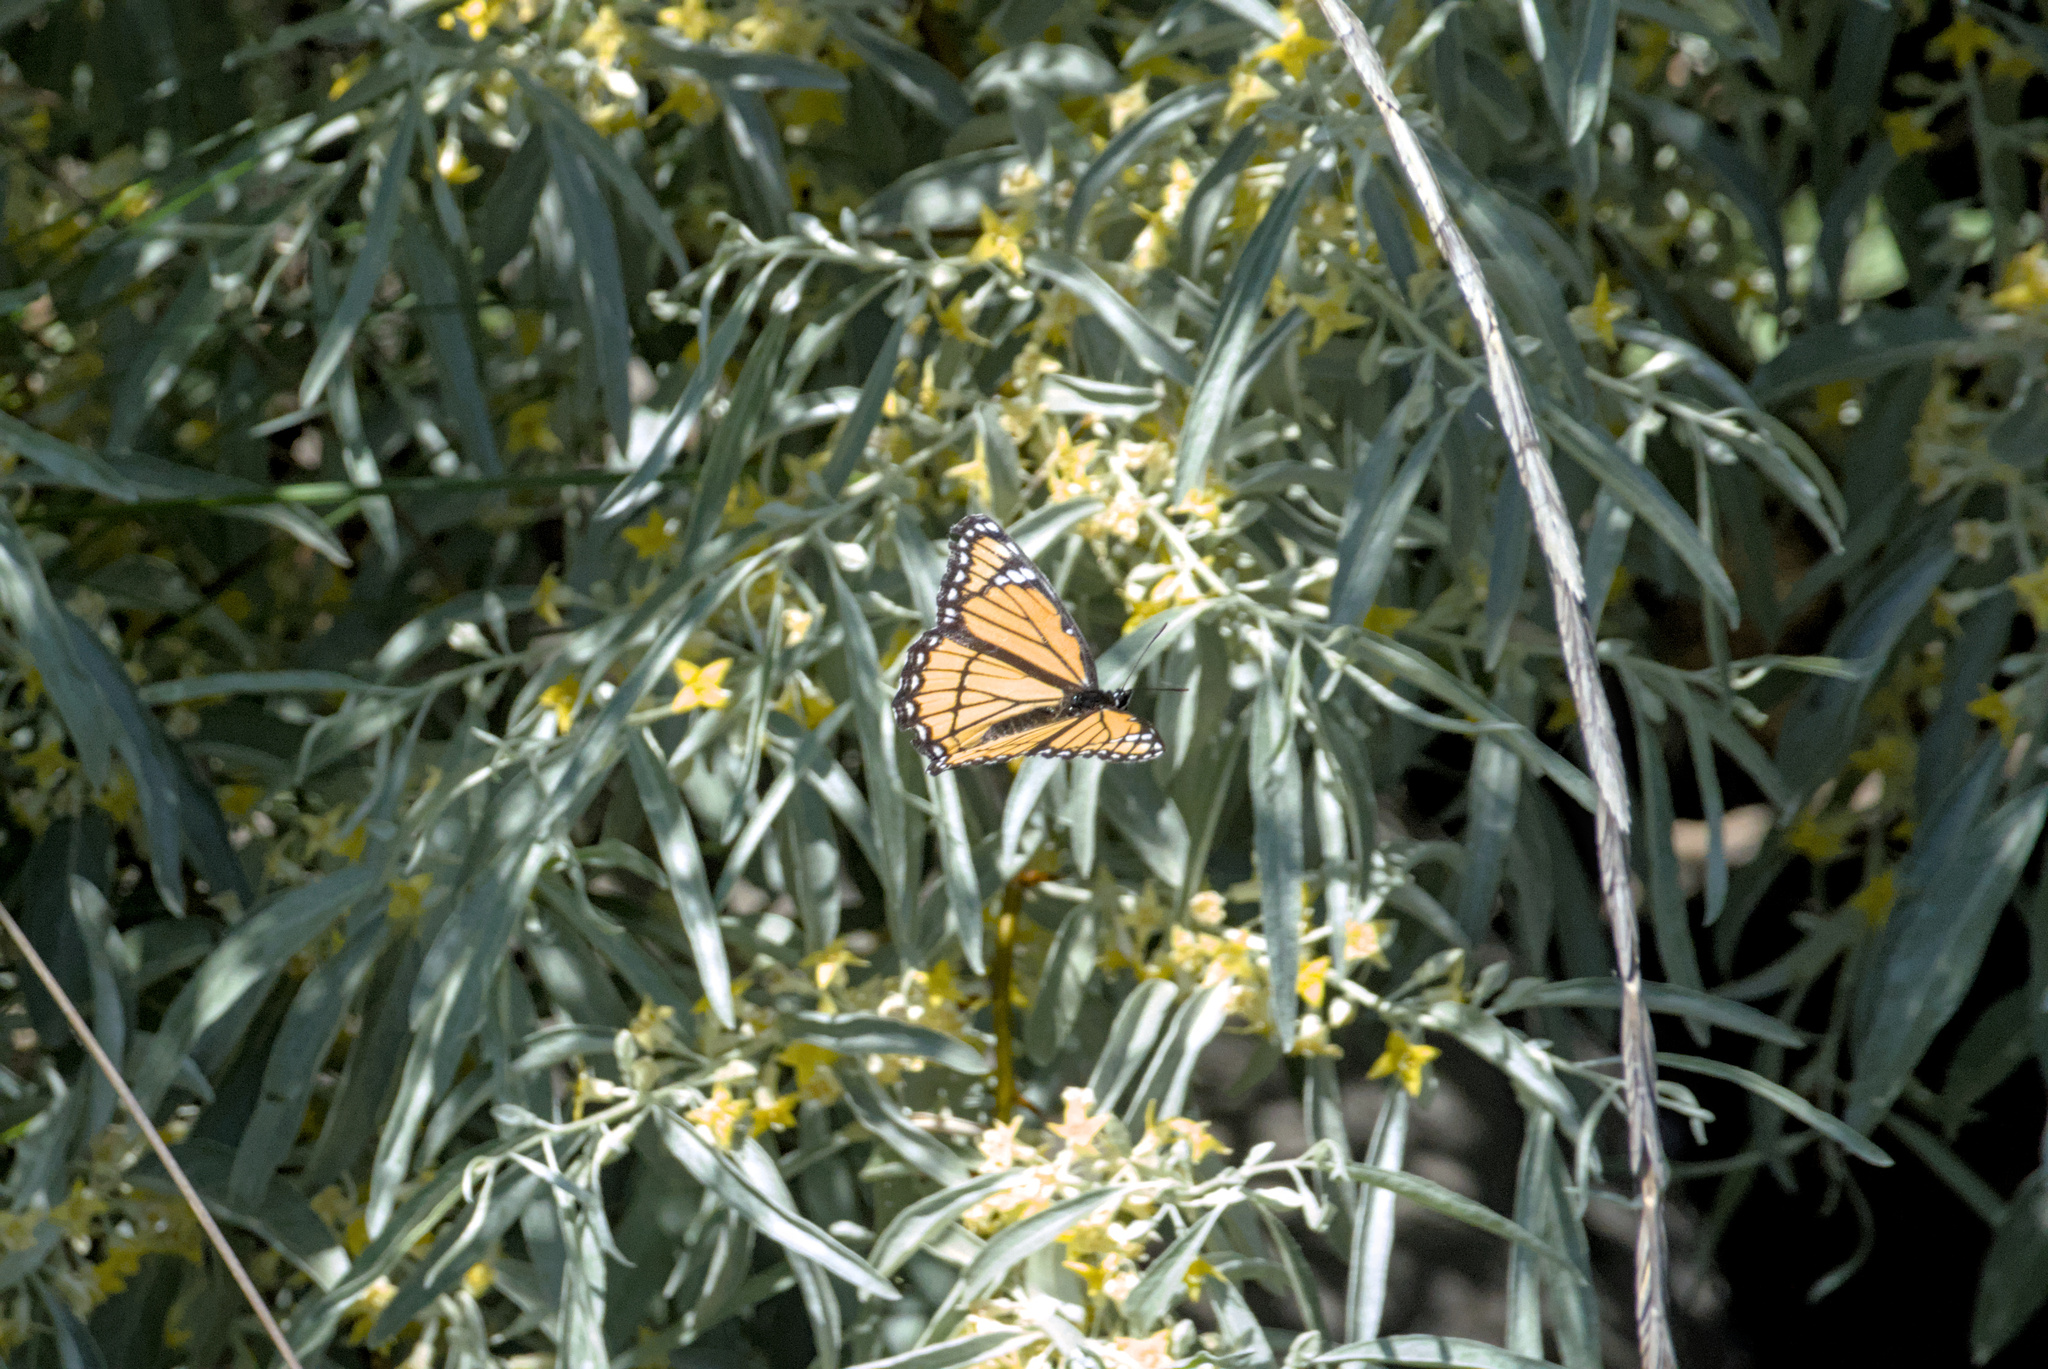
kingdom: Animalia
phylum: Arthropoda
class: Insecta
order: Lepidoptera
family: Nymphalidae
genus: Limenitis
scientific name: Limenitis archippus
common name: Viceroy
